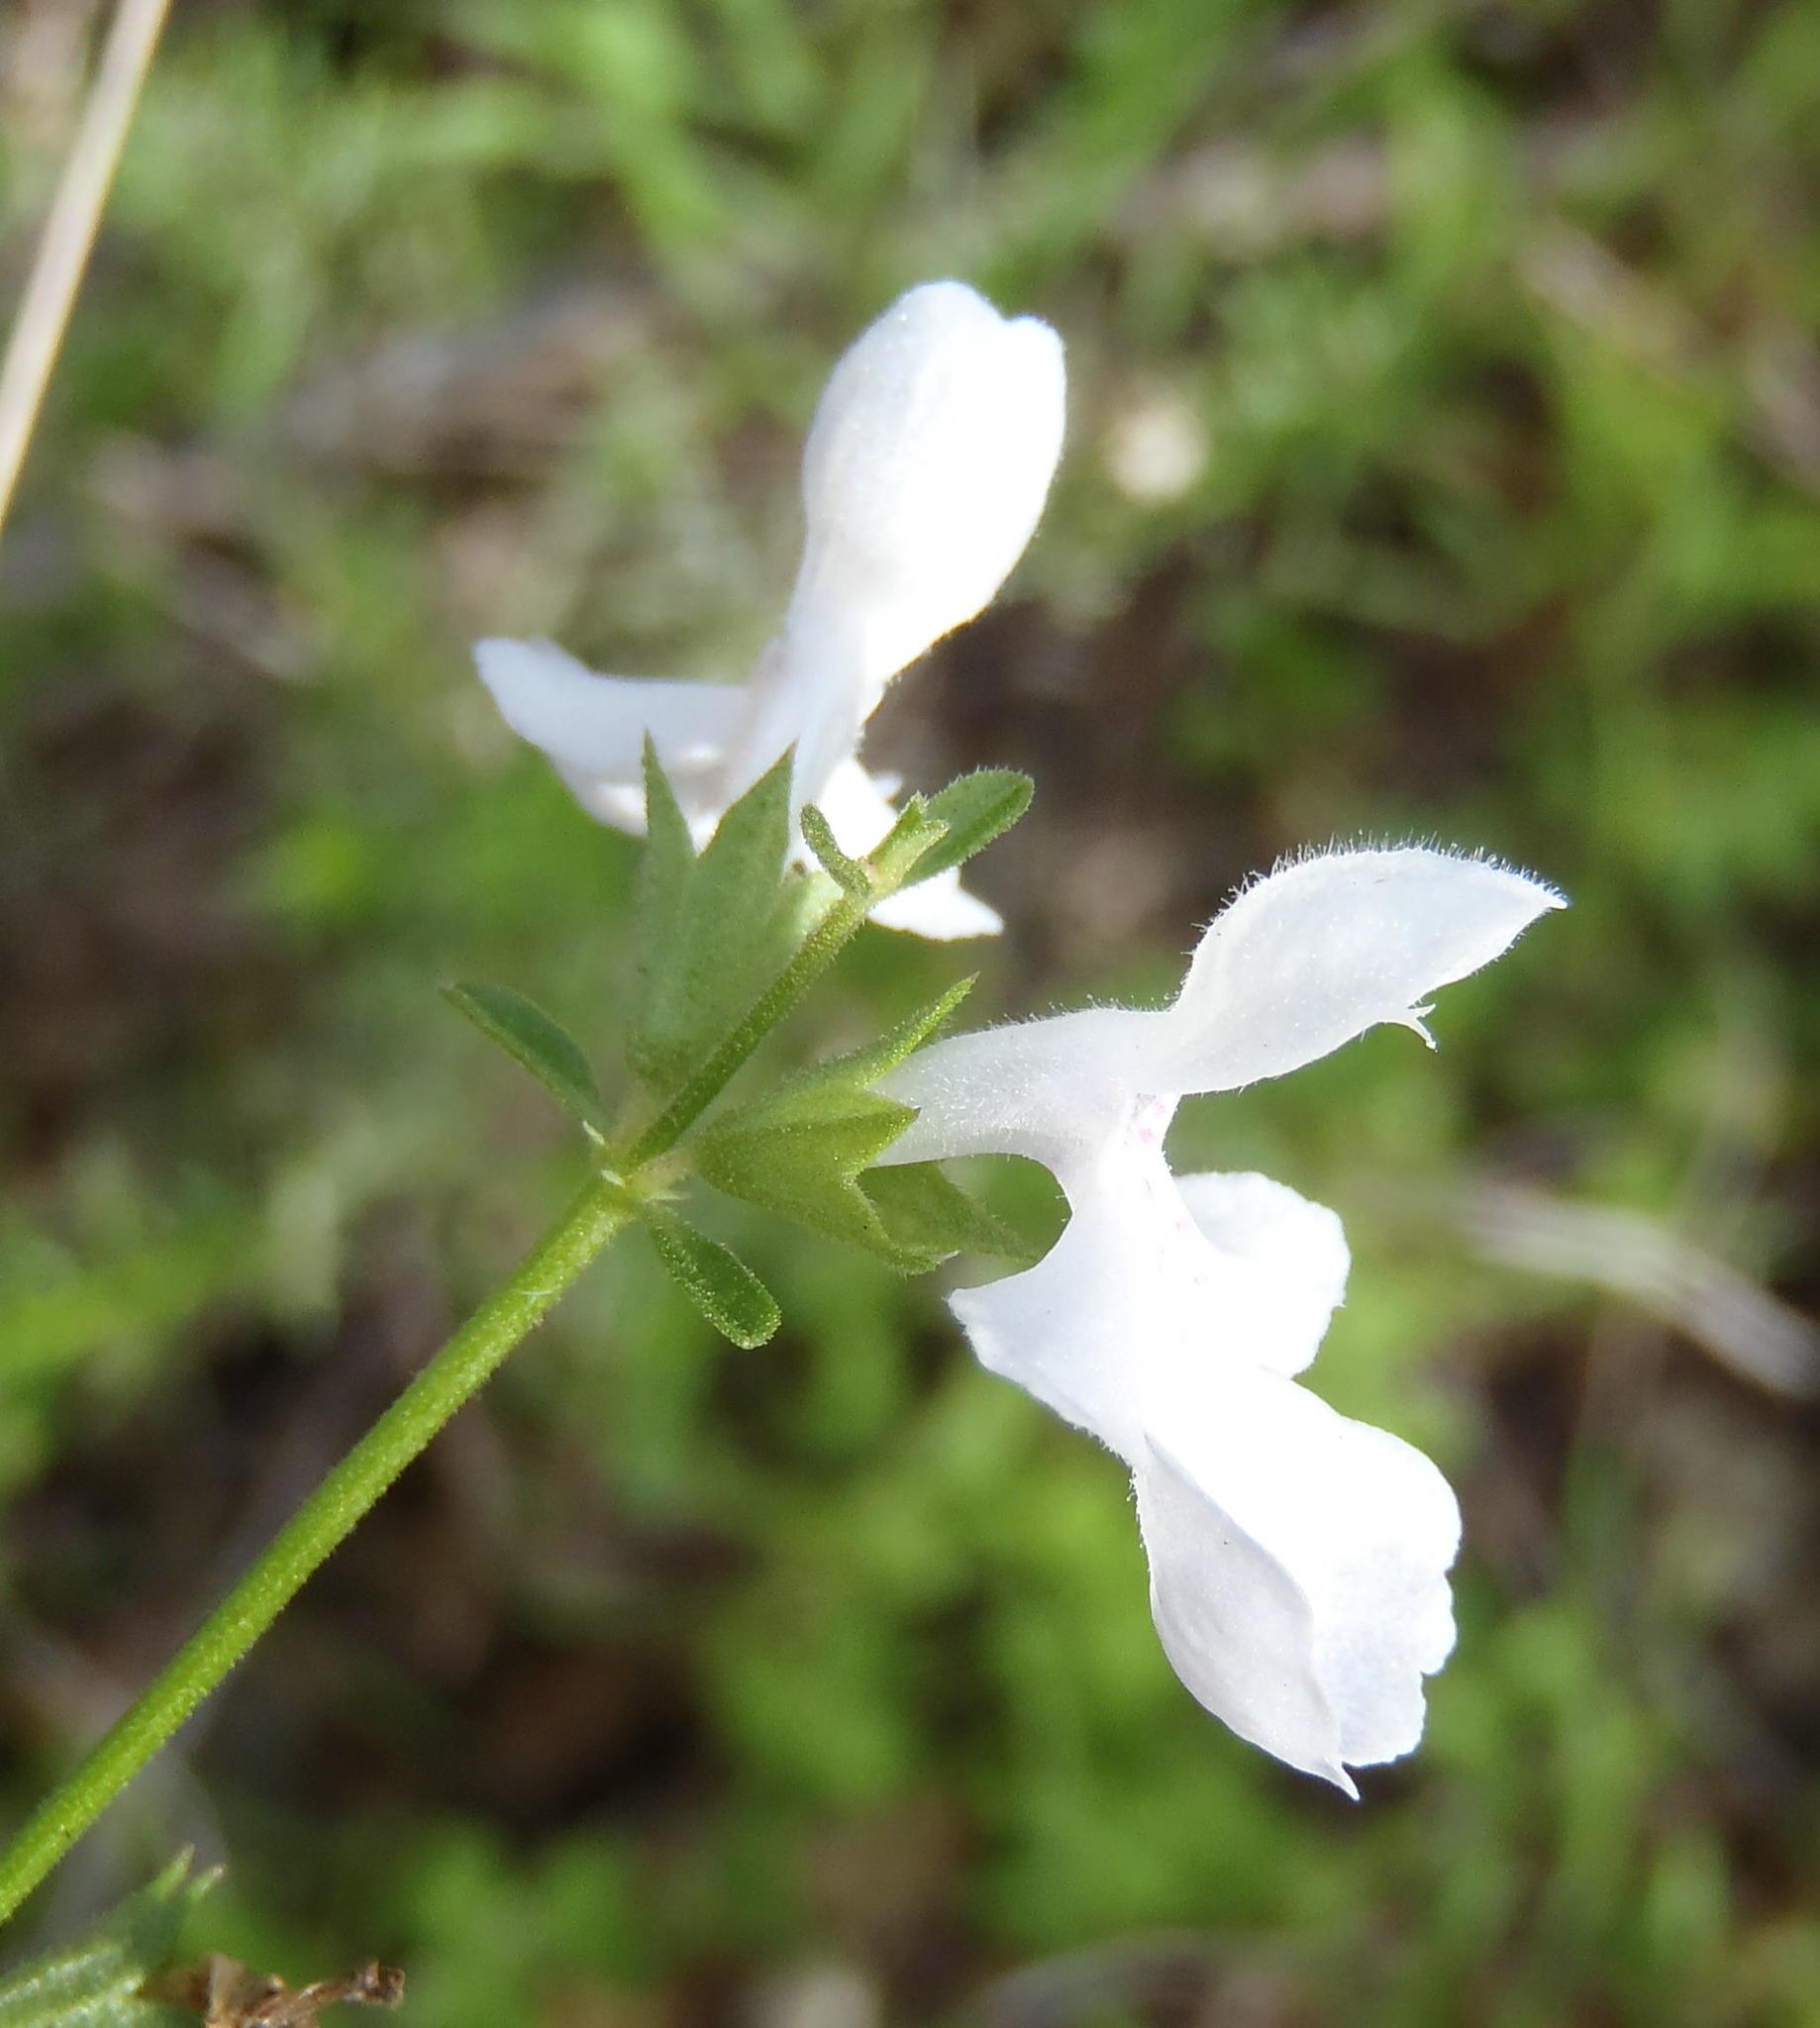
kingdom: Plantae
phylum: Tracheophyta
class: Magnoliopsida
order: Lamiales
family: Lamiaceae
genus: Stachys
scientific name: Stachys aethiopica
